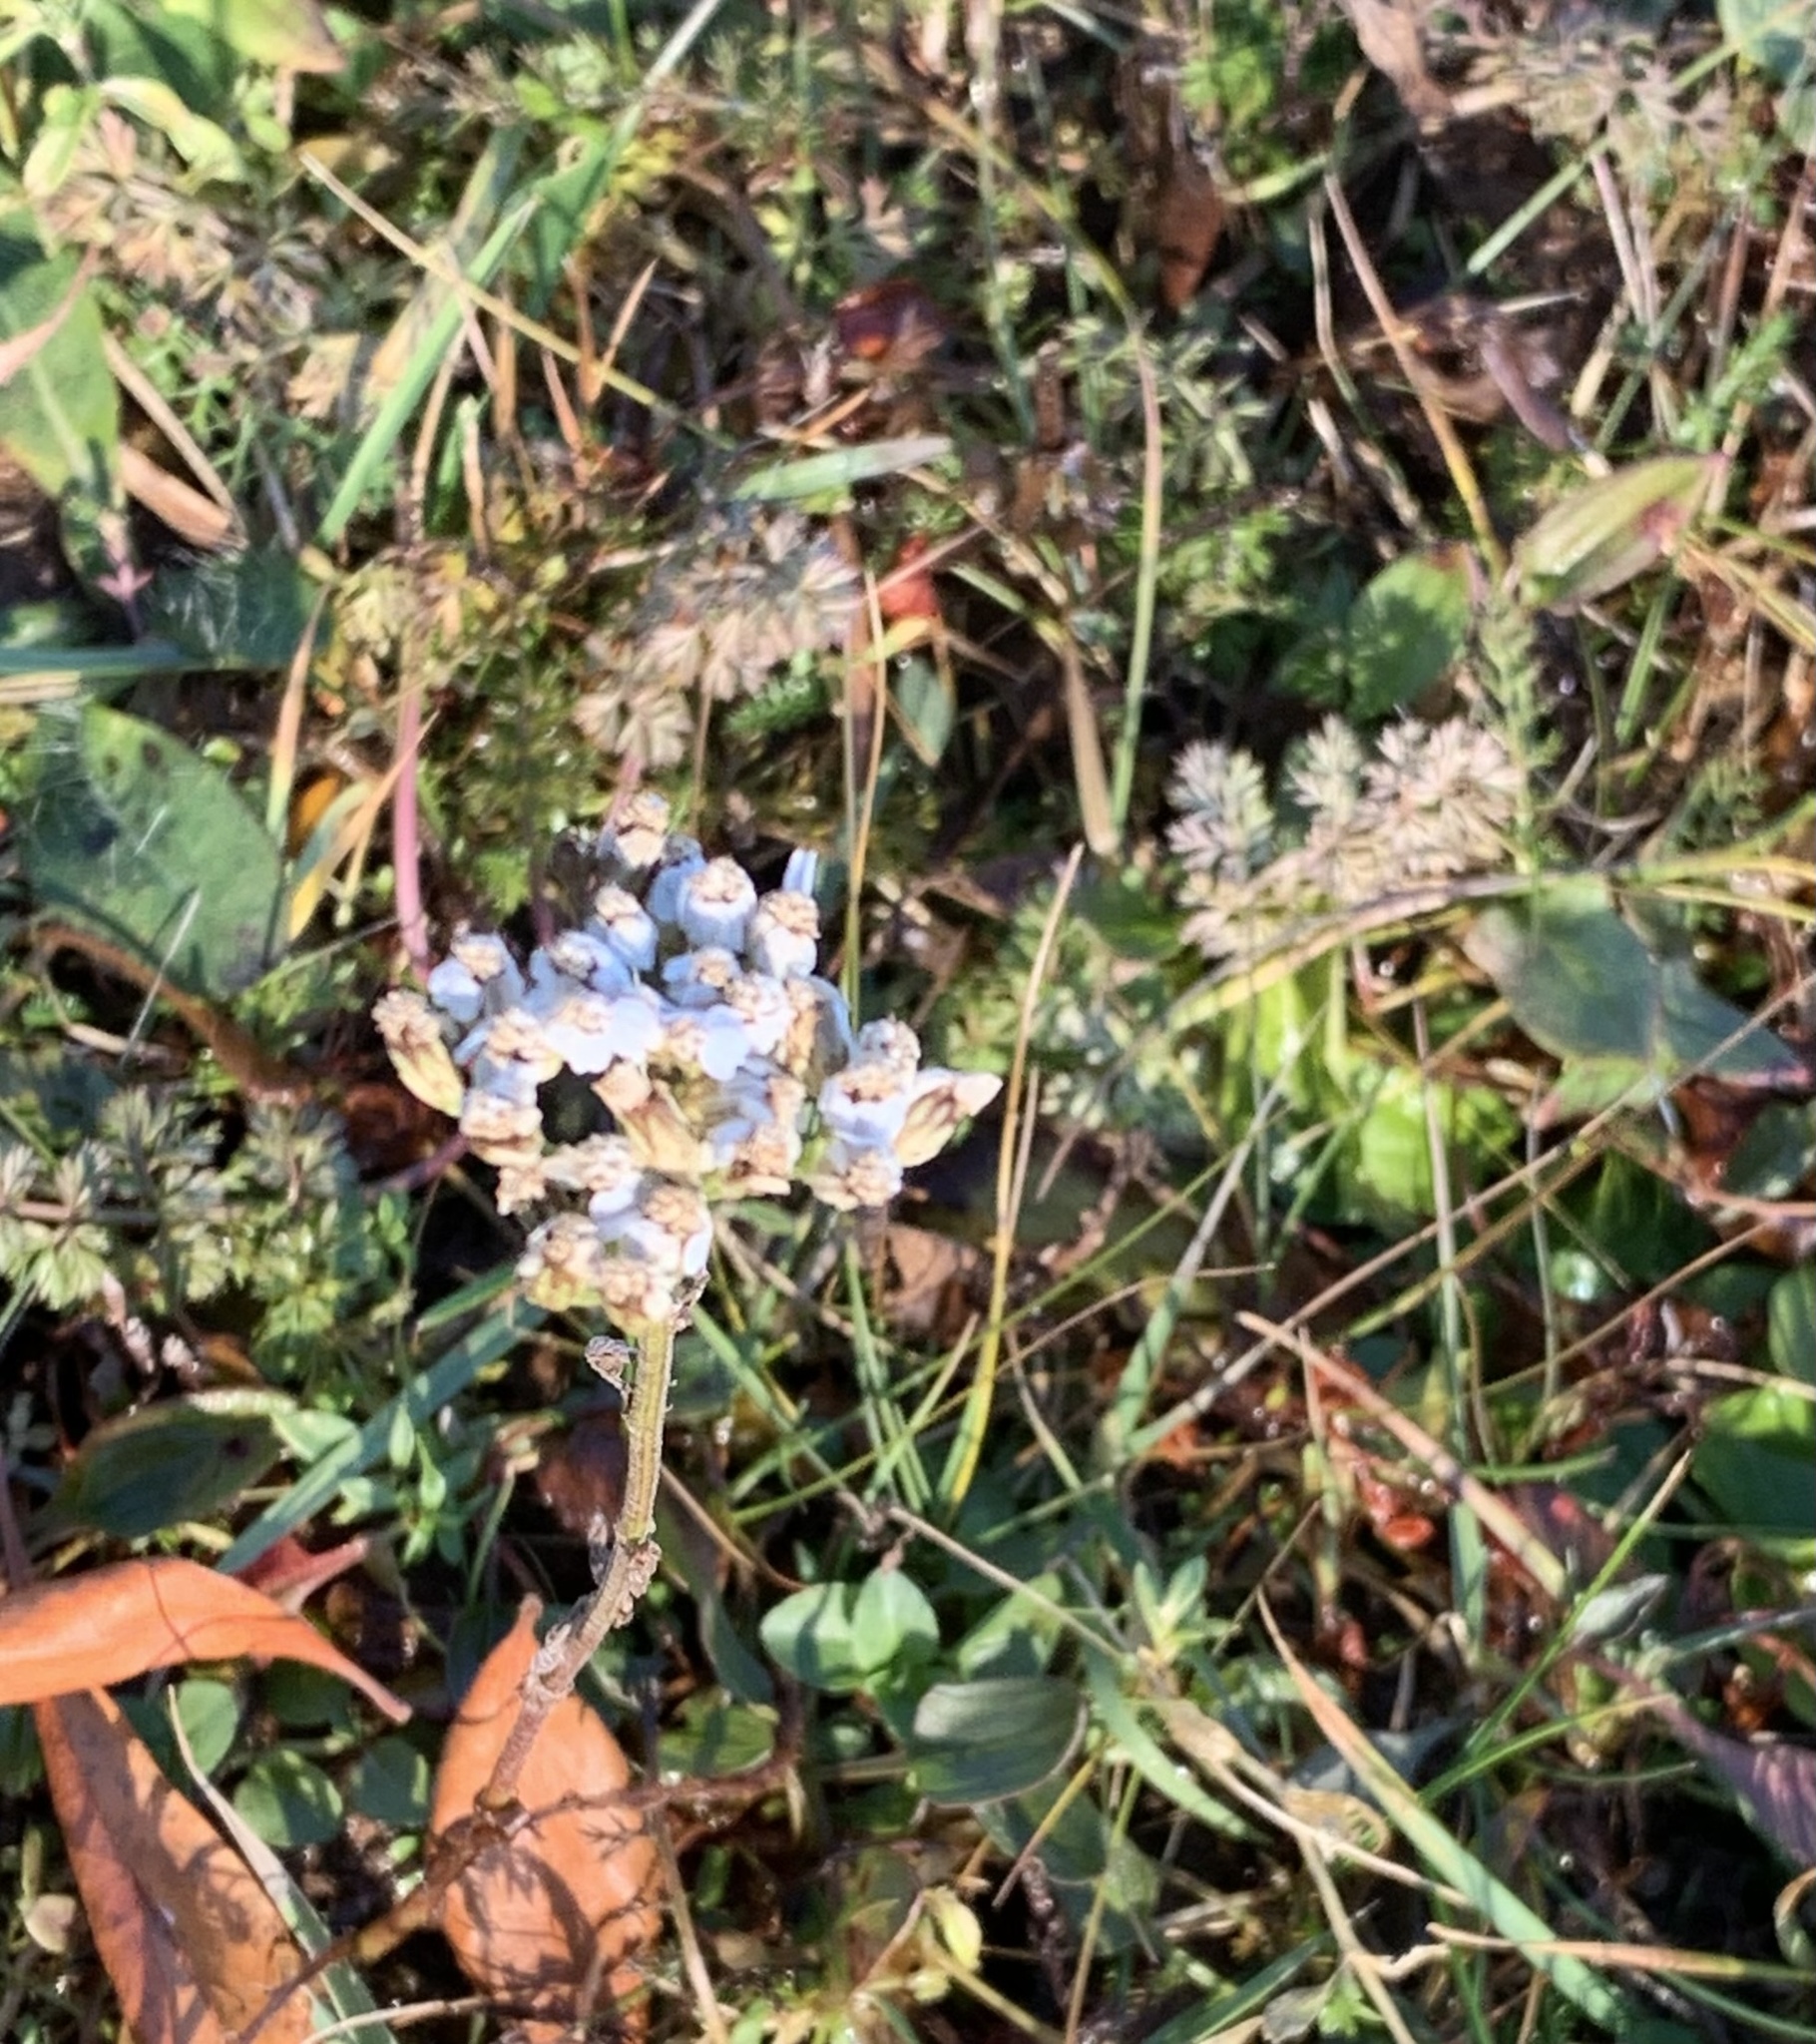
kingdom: Plantae
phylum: Tracheophyta
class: Magnoliopsida
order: Asterales
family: Asteraceae
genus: Achillea
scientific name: Achillea millefolium
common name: Yarrow
